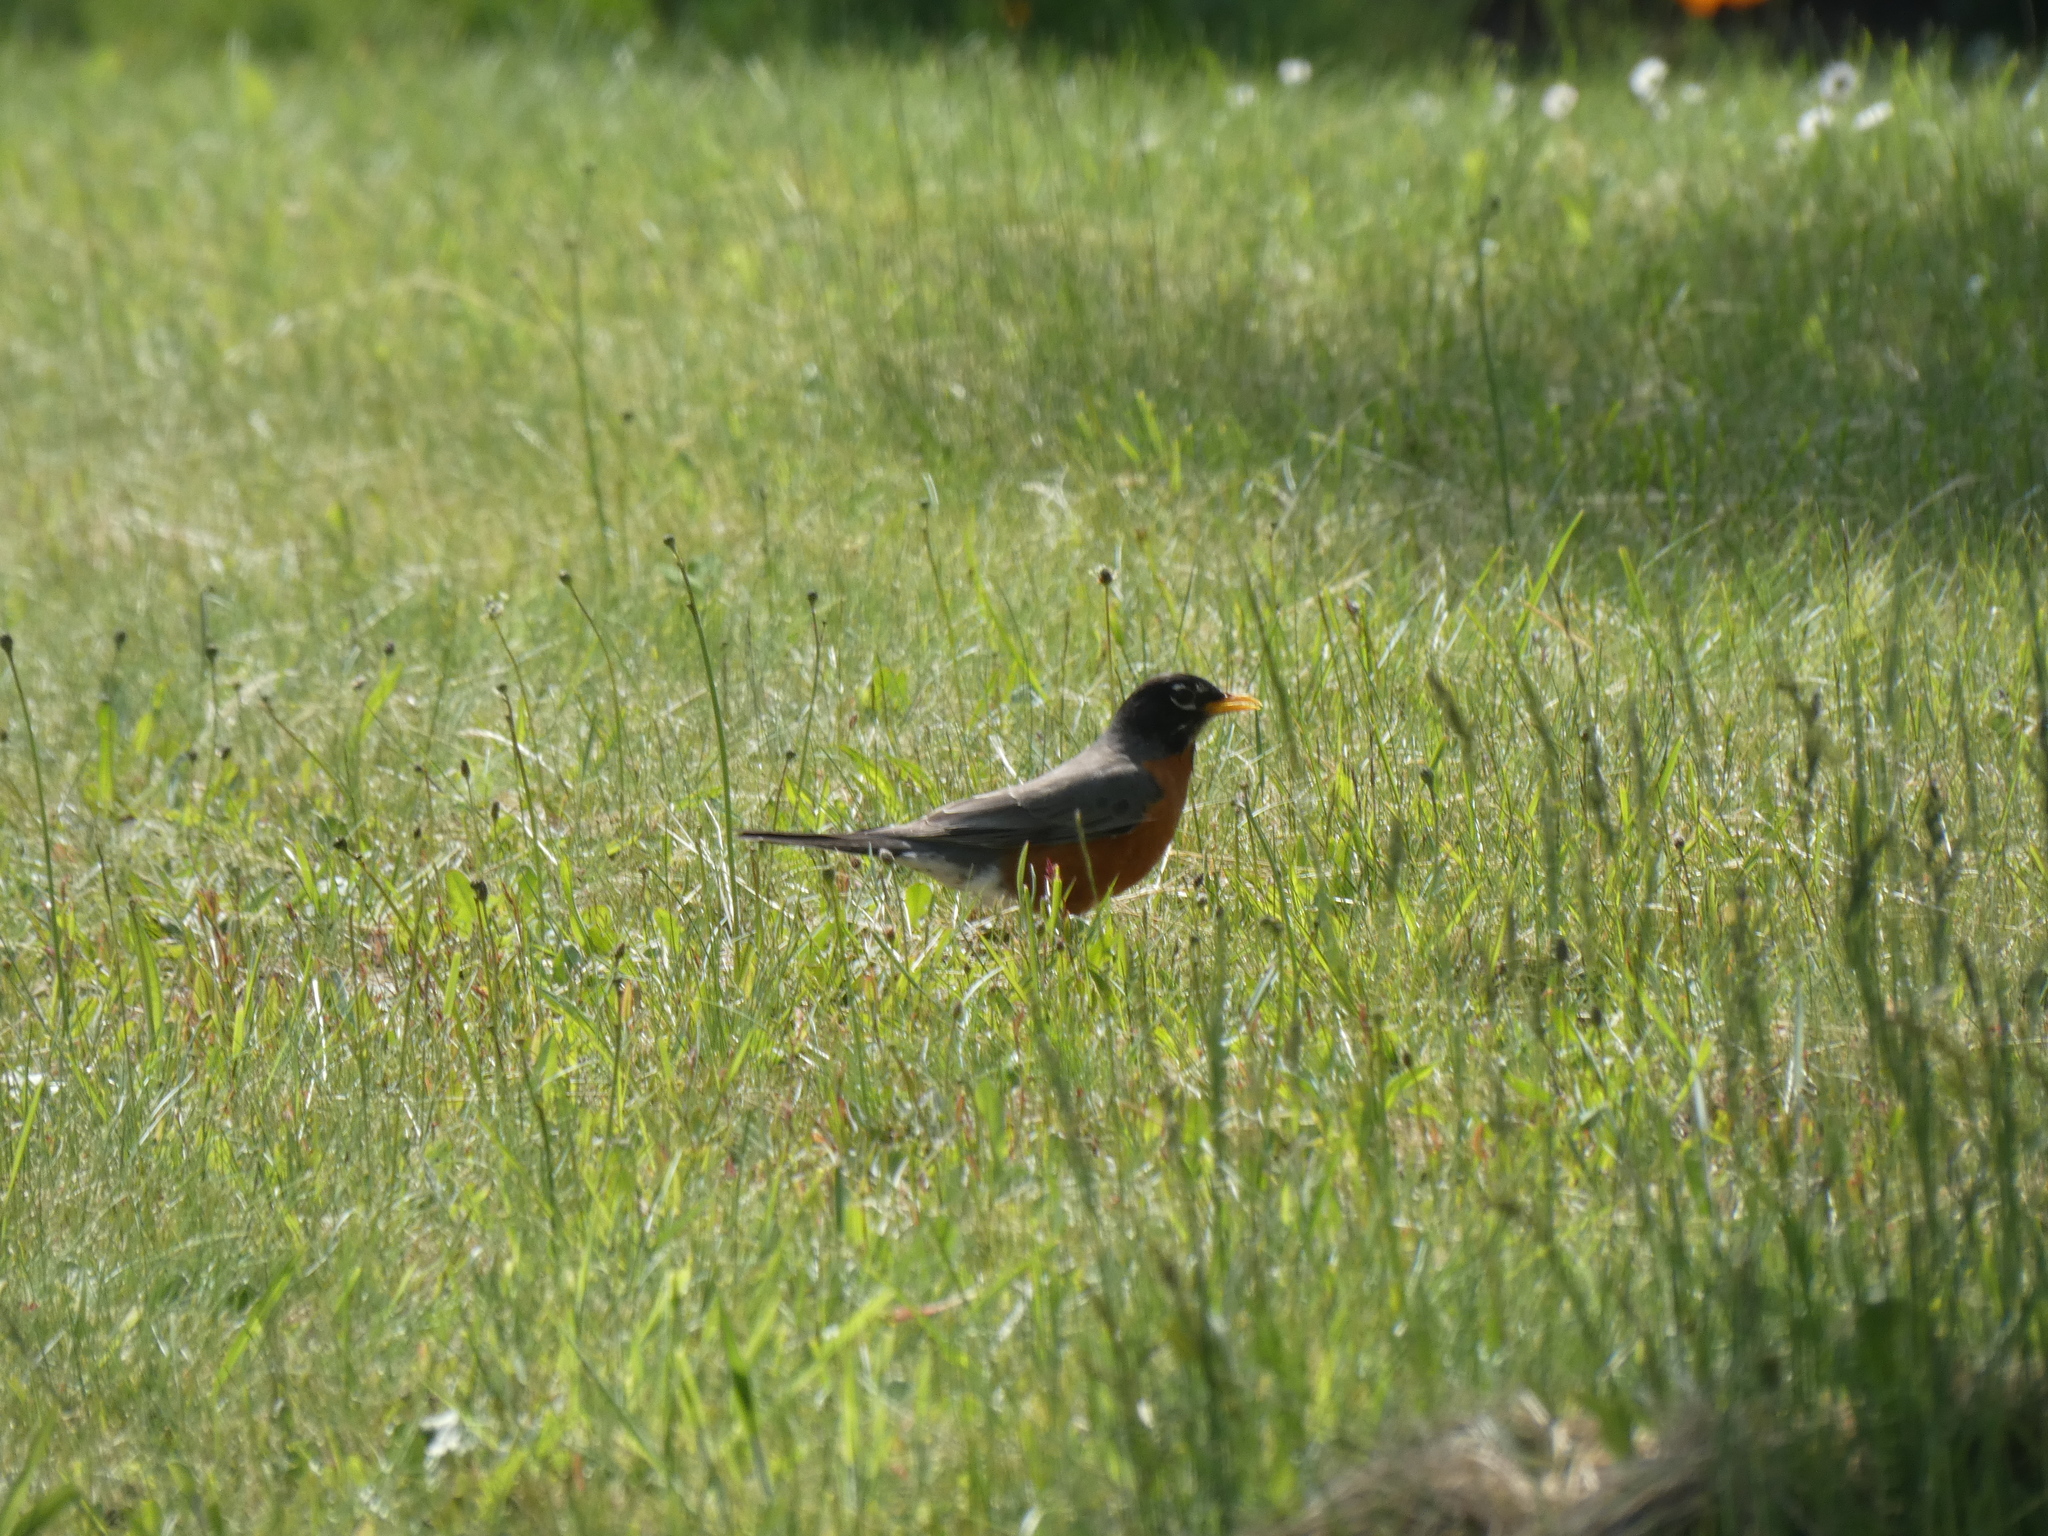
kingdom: Animalia
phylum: Chordata
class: Aves
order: Passeriformes
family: Turdidae
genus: Turdus
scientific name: Turdus migratorius
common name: American robin
